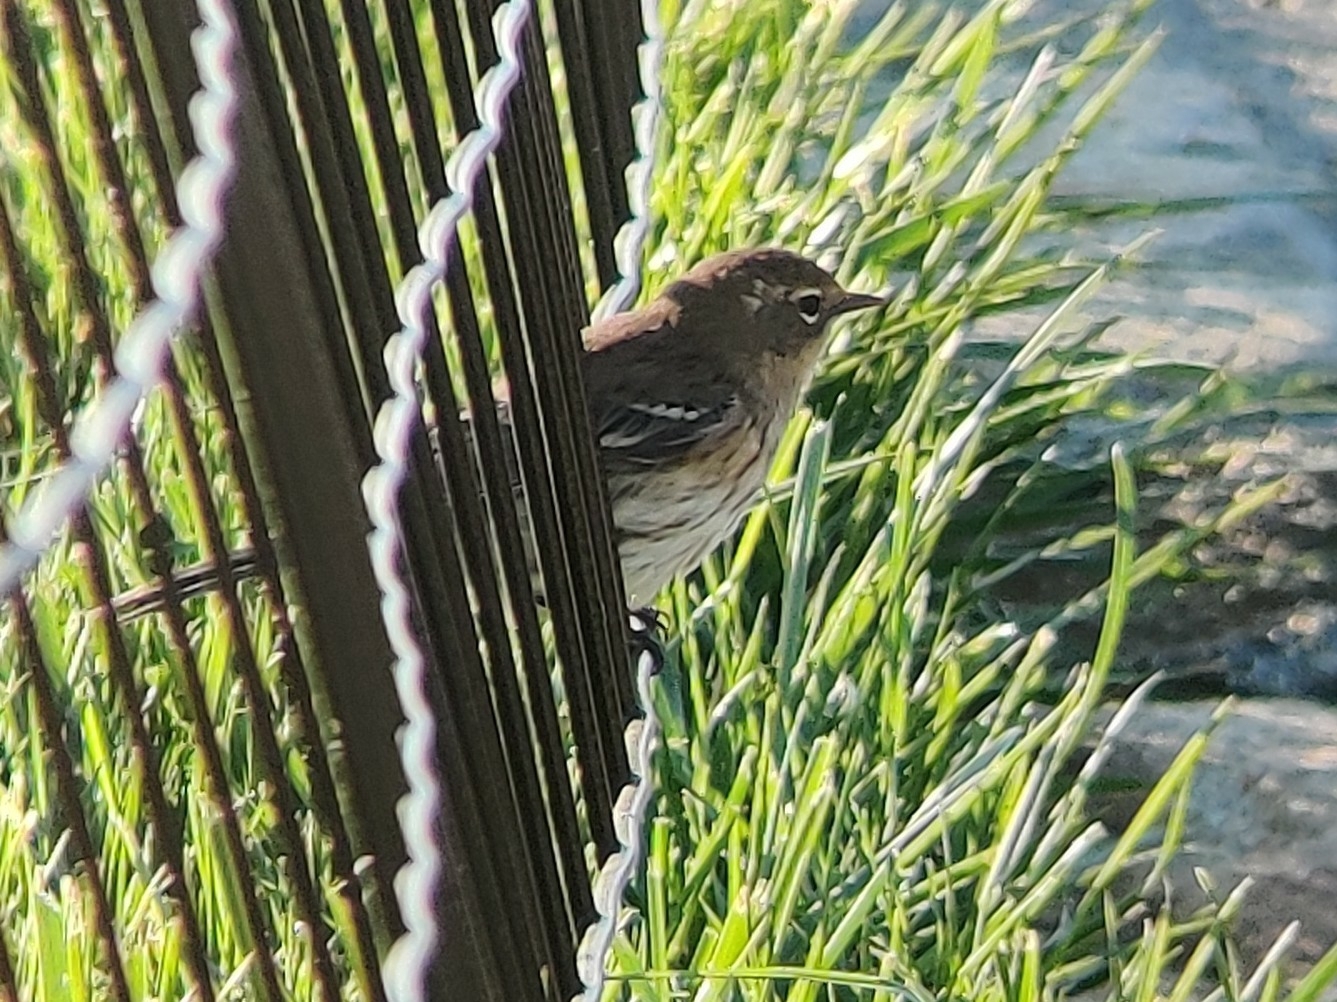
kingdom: Animalia
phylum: Chordata
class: Aves
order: Passeriformes
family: Parulidae
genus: Setophaga
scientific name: Setophaga coronata
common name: Myrtle warbler
